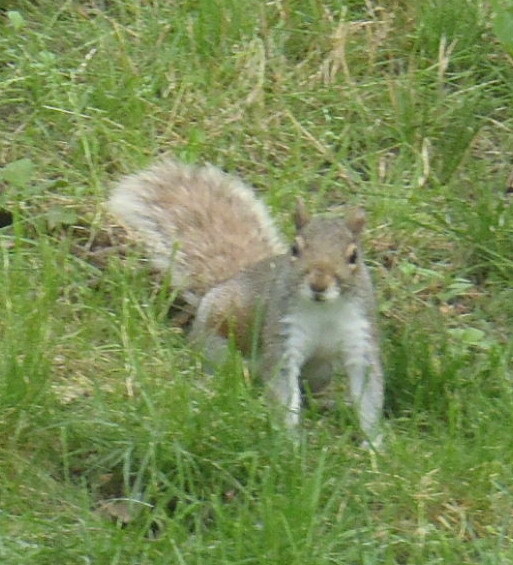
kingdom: Animalia
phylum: Chordata
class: Mammalia
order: Rodentia
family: Sciuridae
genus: Sciurus
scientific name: Sciurus carolinensis
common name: Eastern gray squirrel
